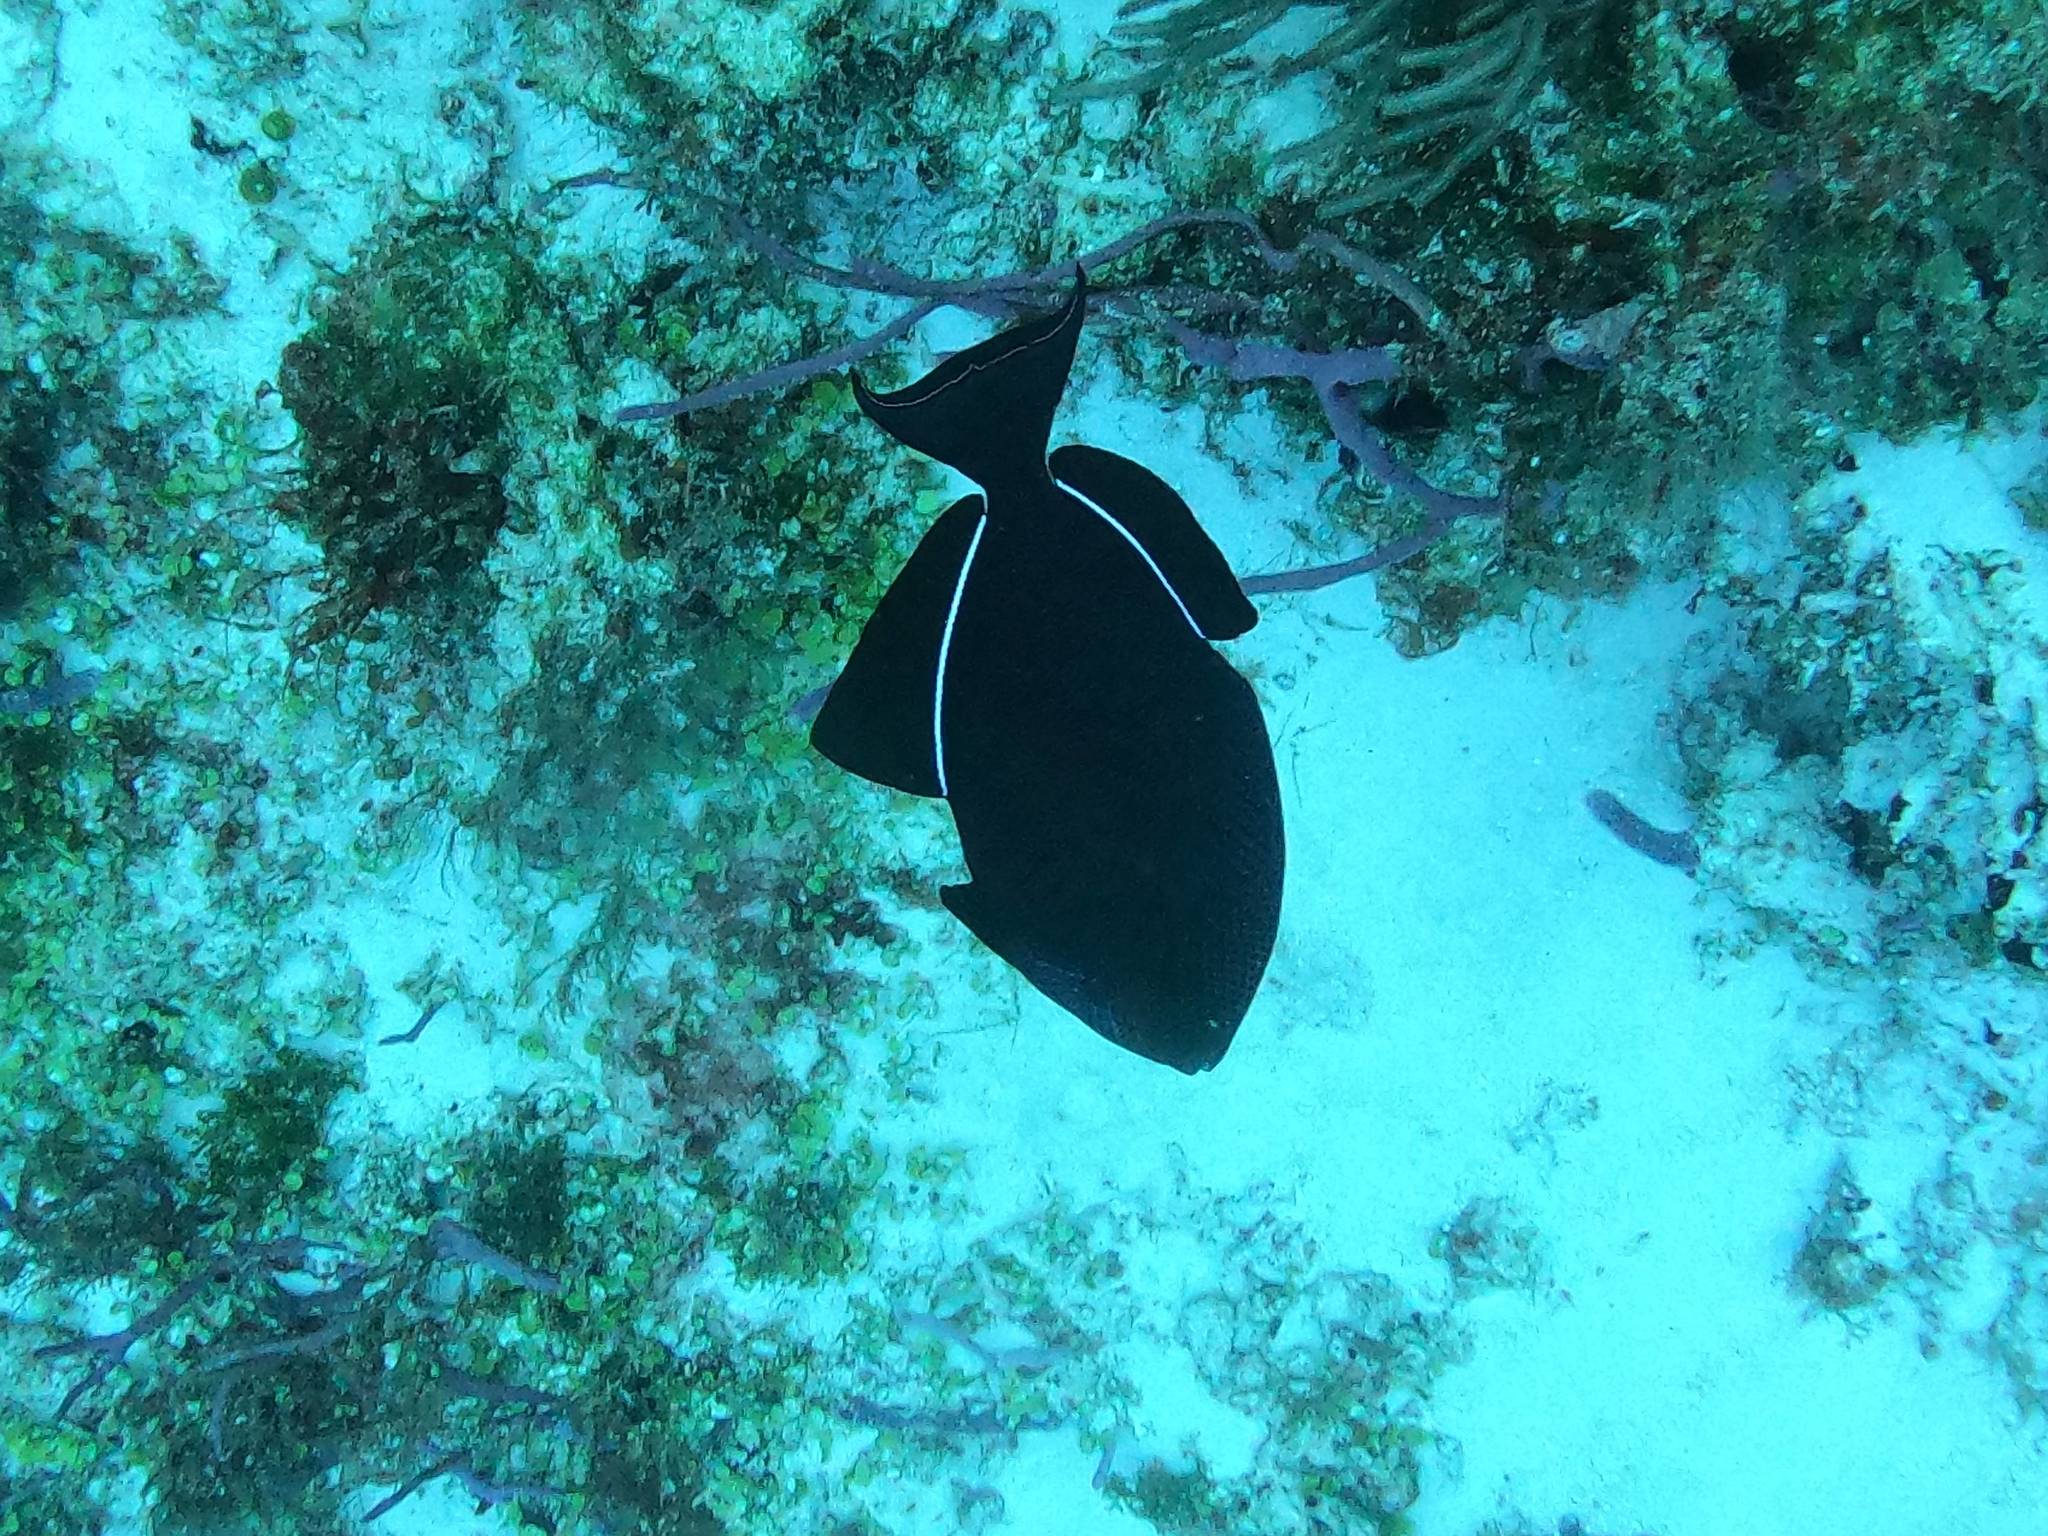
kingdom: Animalia
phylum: Chordata
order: Tetraodontiformes
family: Balistidae
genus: Melichthys
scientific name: Melichthys niger
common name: Black durgon
